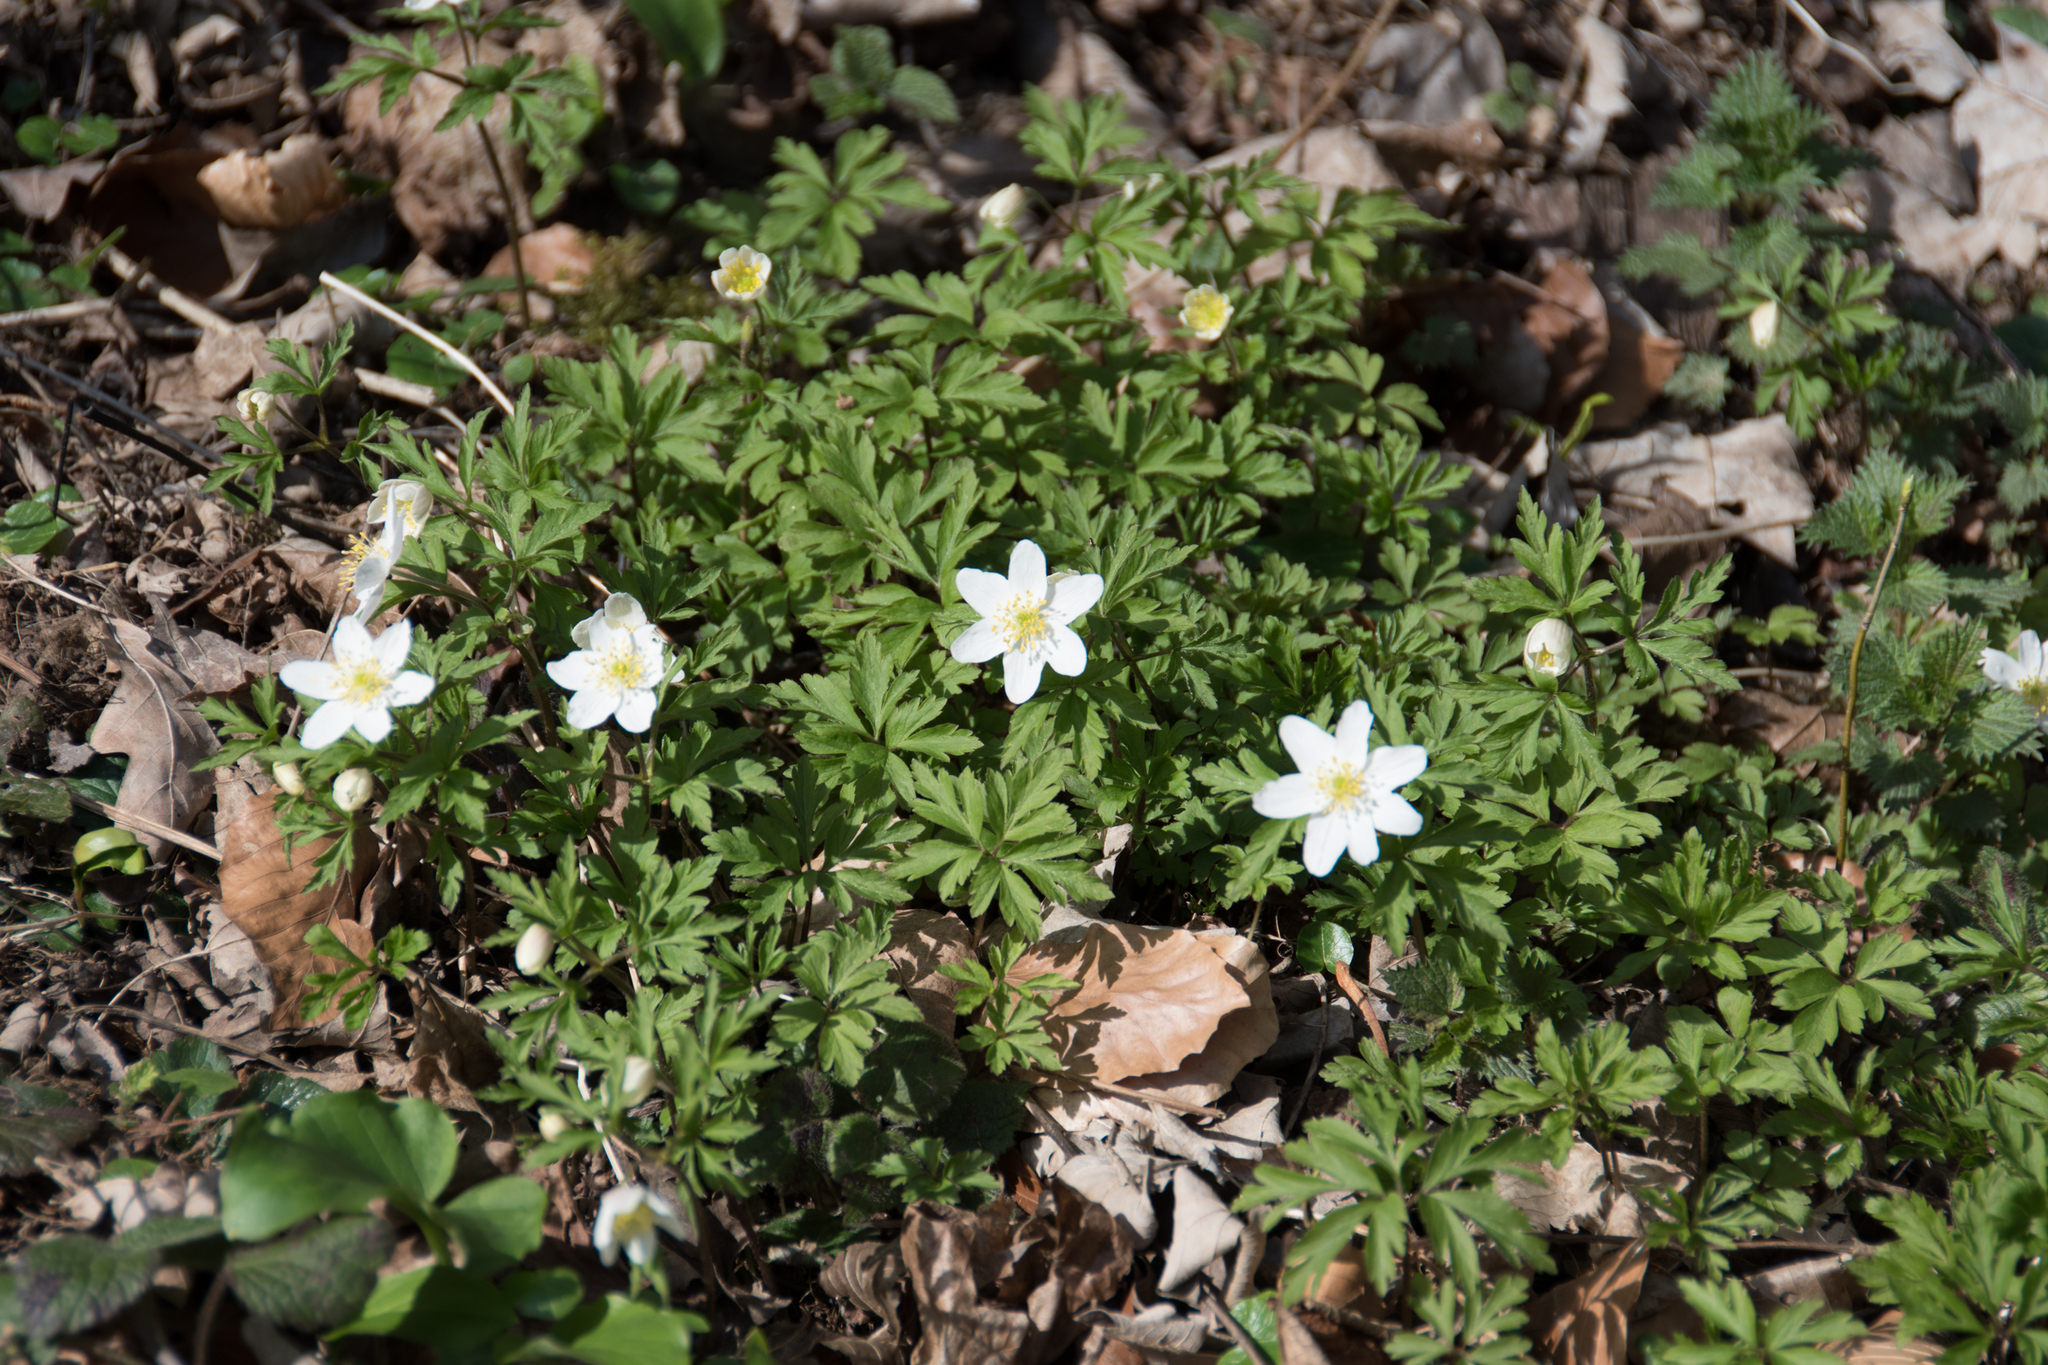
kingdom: Plantae
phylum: Tracheophyta
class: Magnoliopsida
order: Ranunculales
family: Ranunculaceae
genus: Anemone
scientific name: Anemone nemorosa
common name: Wood anemone
